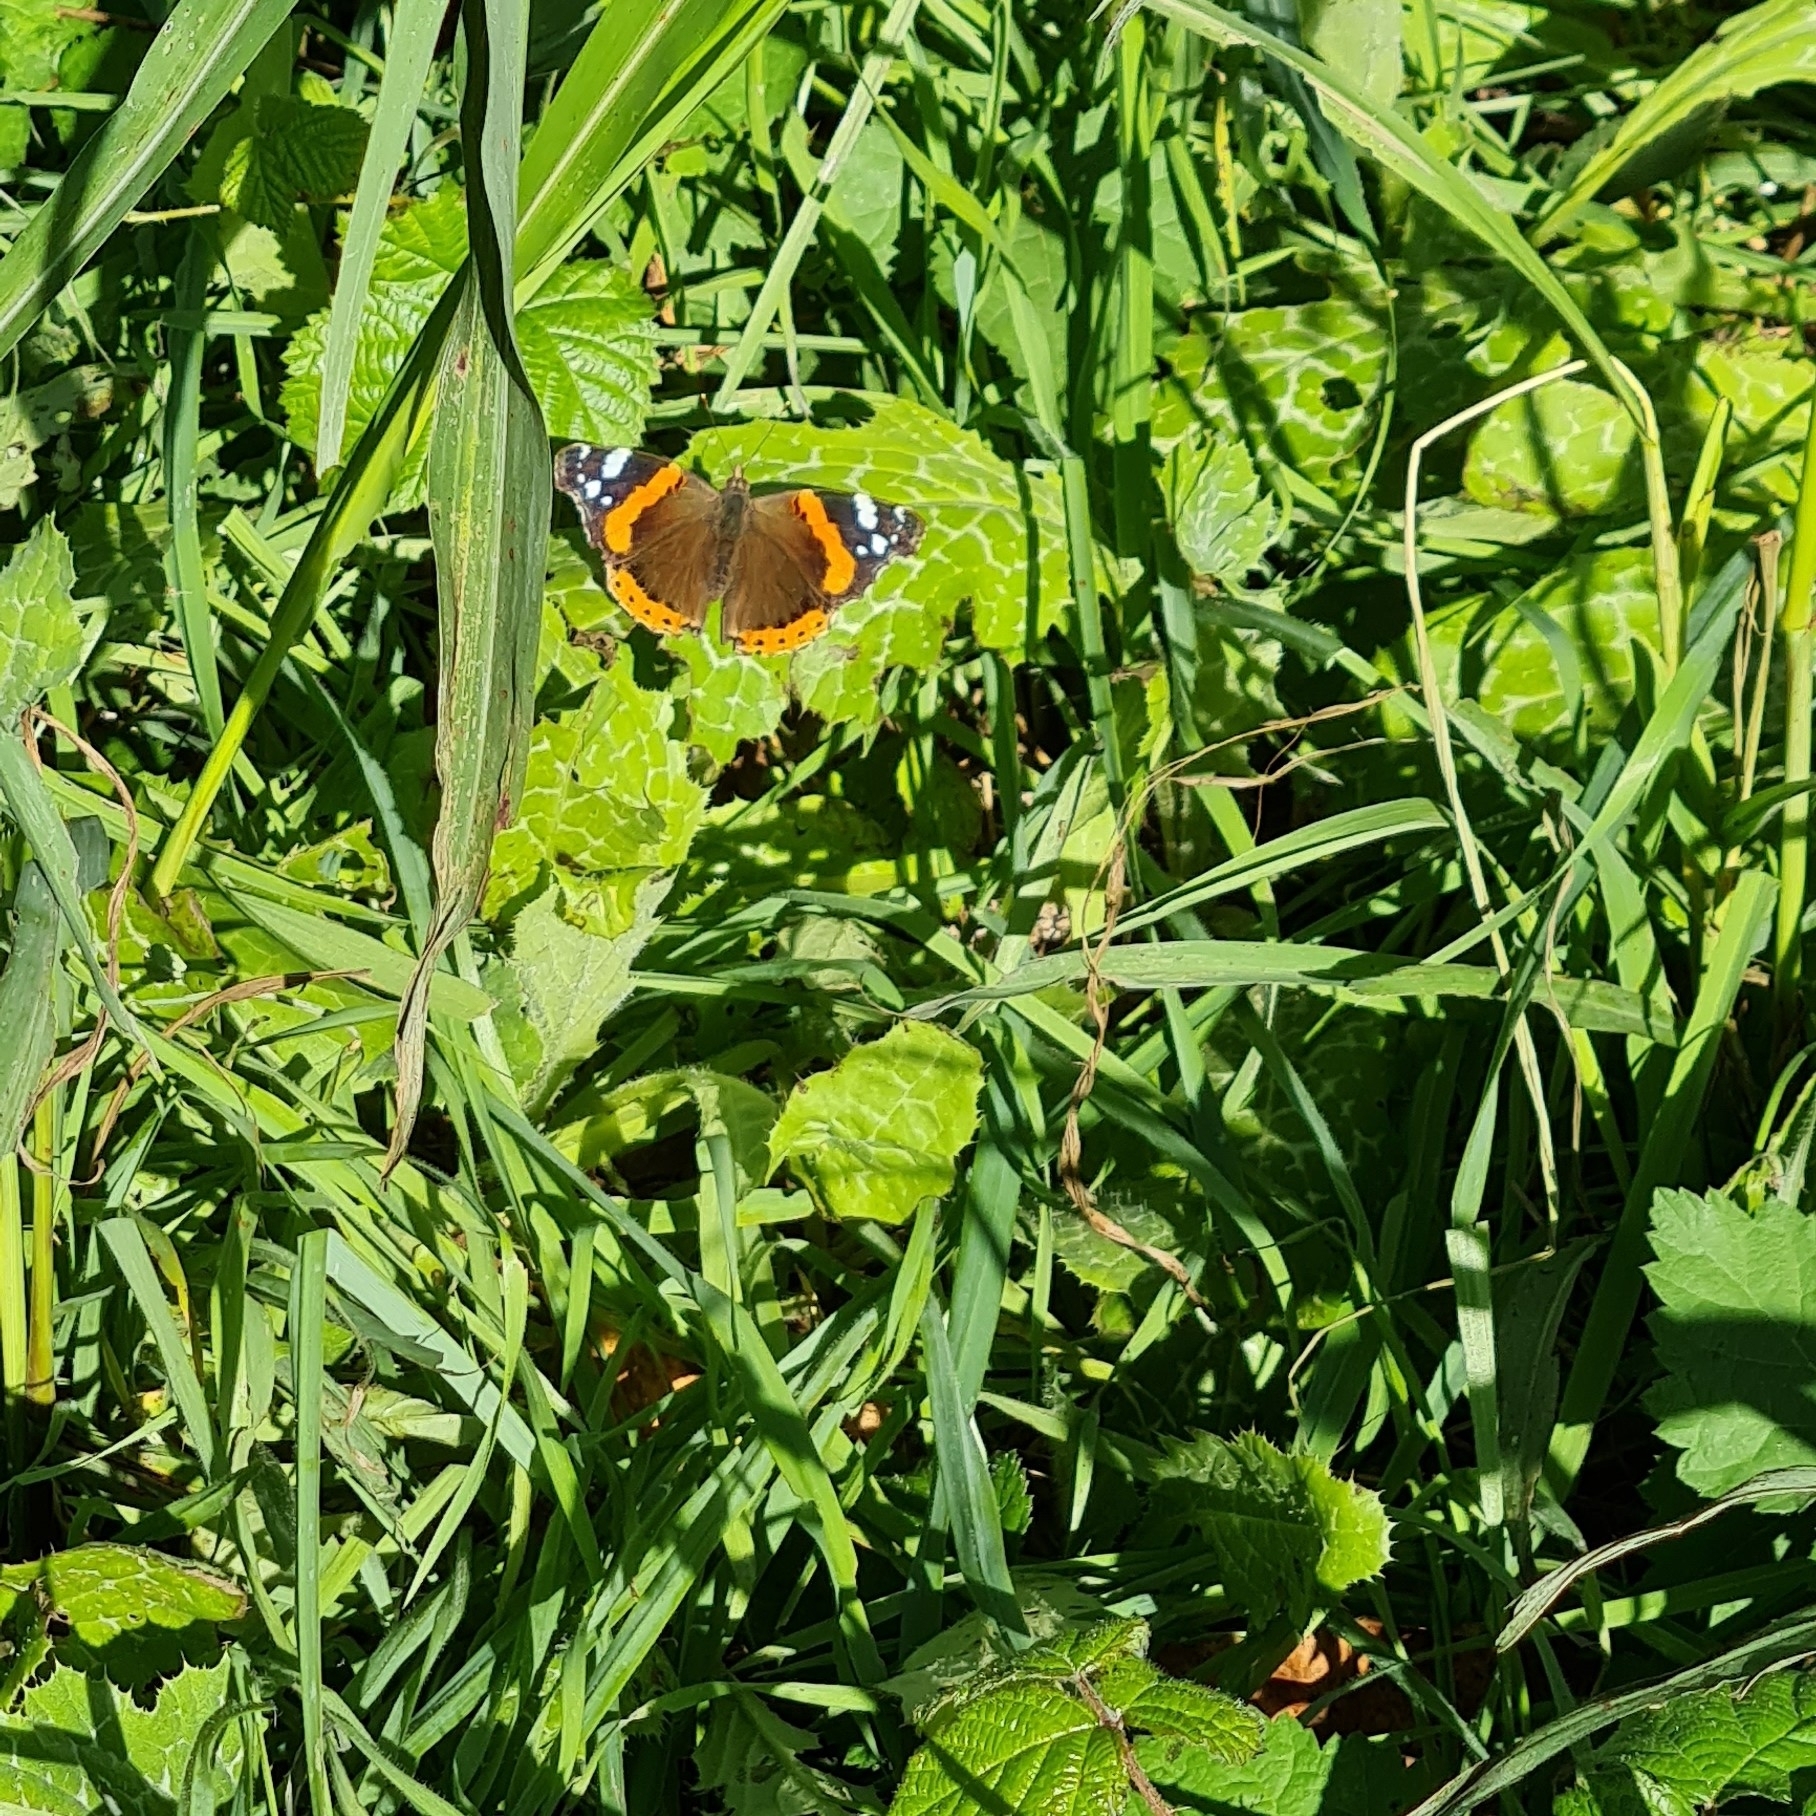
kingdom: Animalia
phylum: Arthropoda
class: Insecta
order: Lepidoptera
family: Nymphalidae
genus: Vanessa
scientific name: Vanessa atalanta
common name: Red admiral
